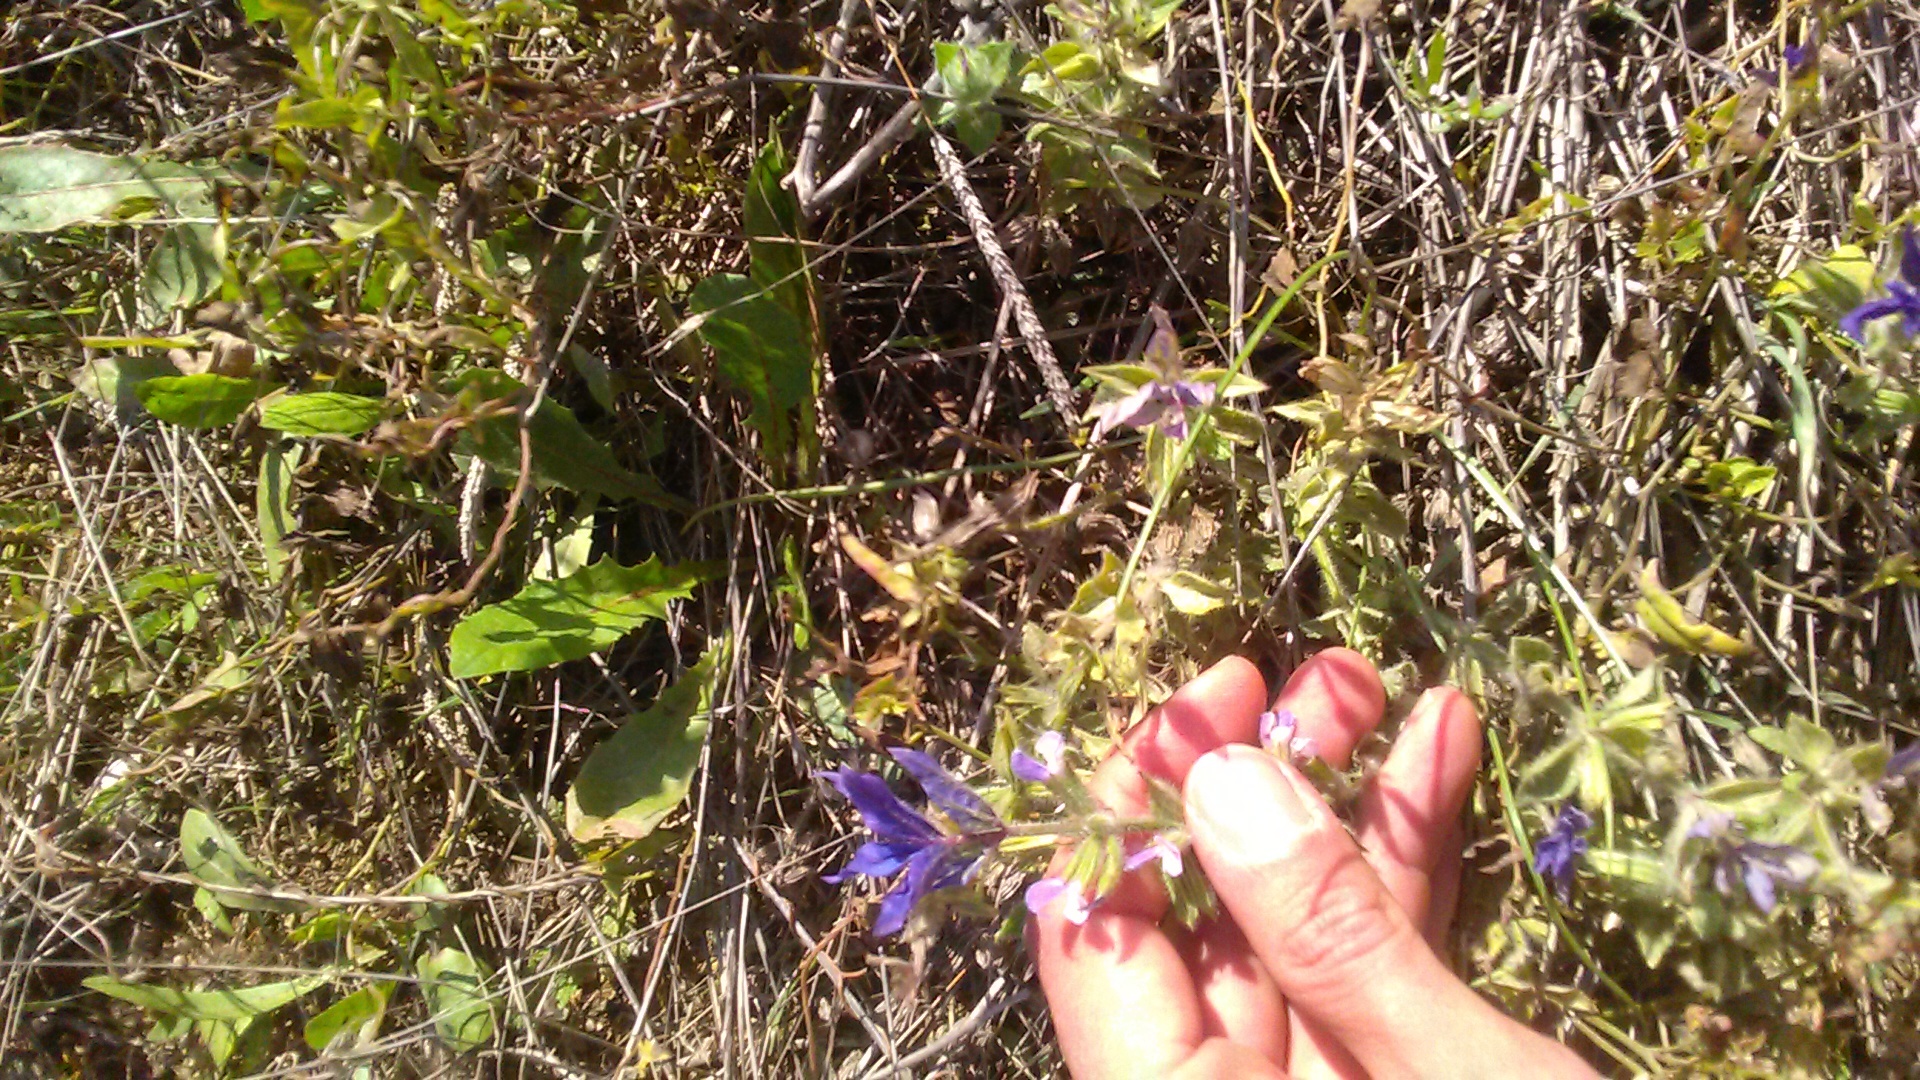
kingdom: Plantae
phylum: Tracheophyta
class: Magnoliopsida
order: Lamiales
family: Lamiaceae
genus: Salvia
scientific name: Salvia viridis
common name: Annual clary
